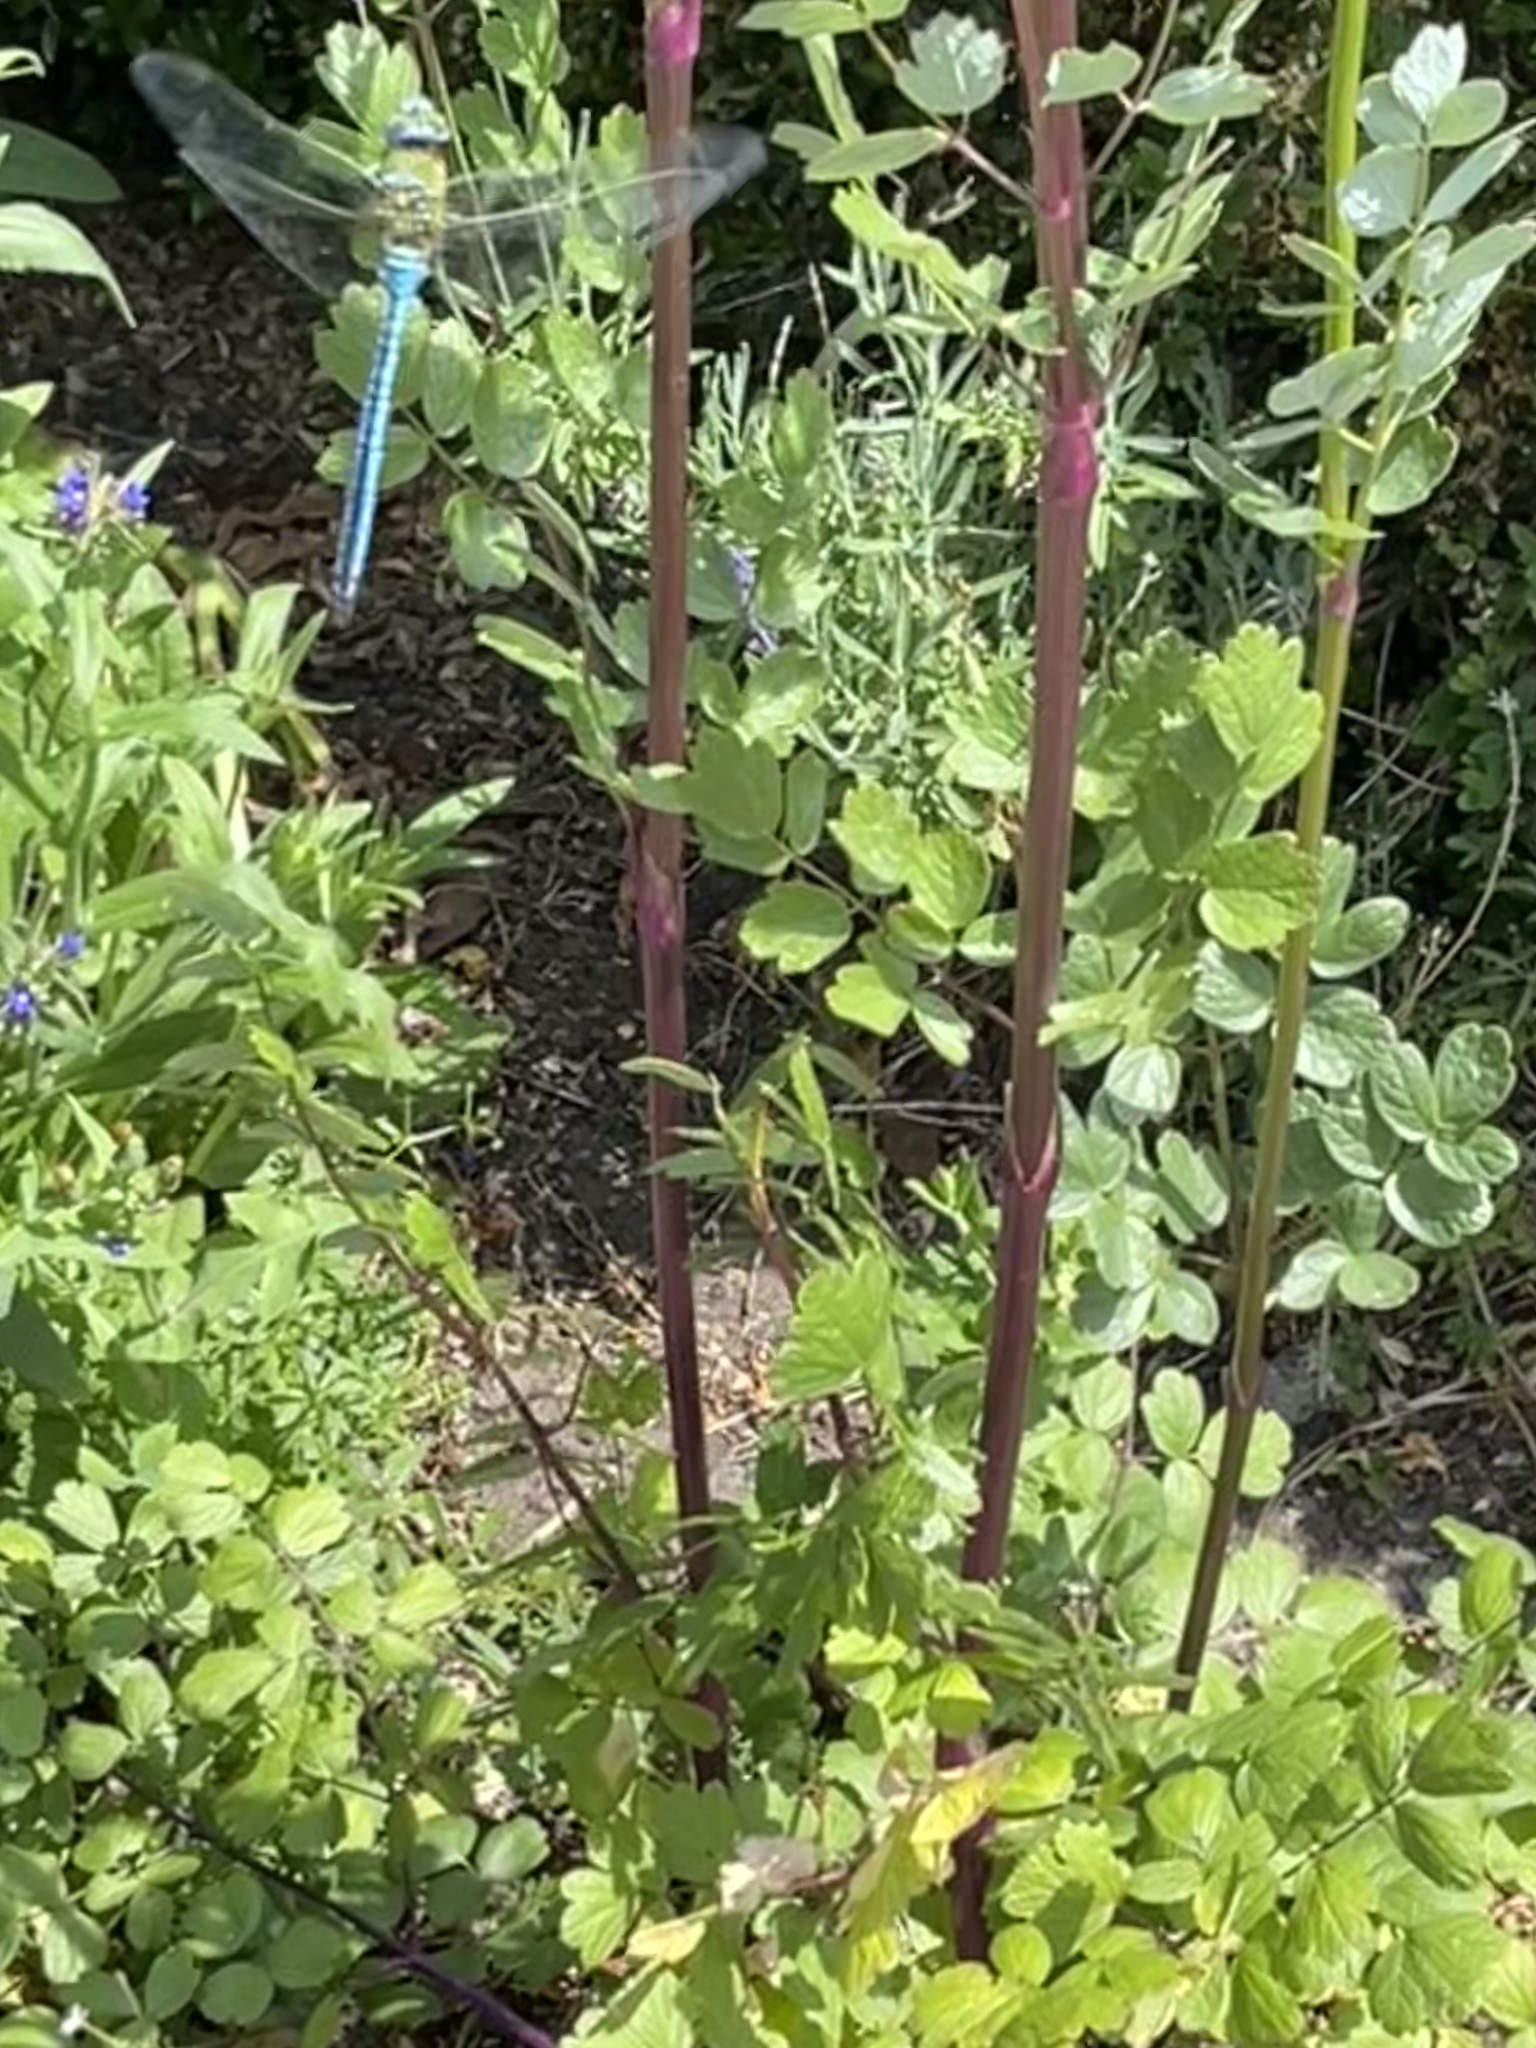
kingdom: Animalia
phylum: Arthropoda
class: Insecta
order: Odonata
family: Aeshnidae
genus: Anax
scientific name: Anax imperator
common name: Emperor dragonfly
